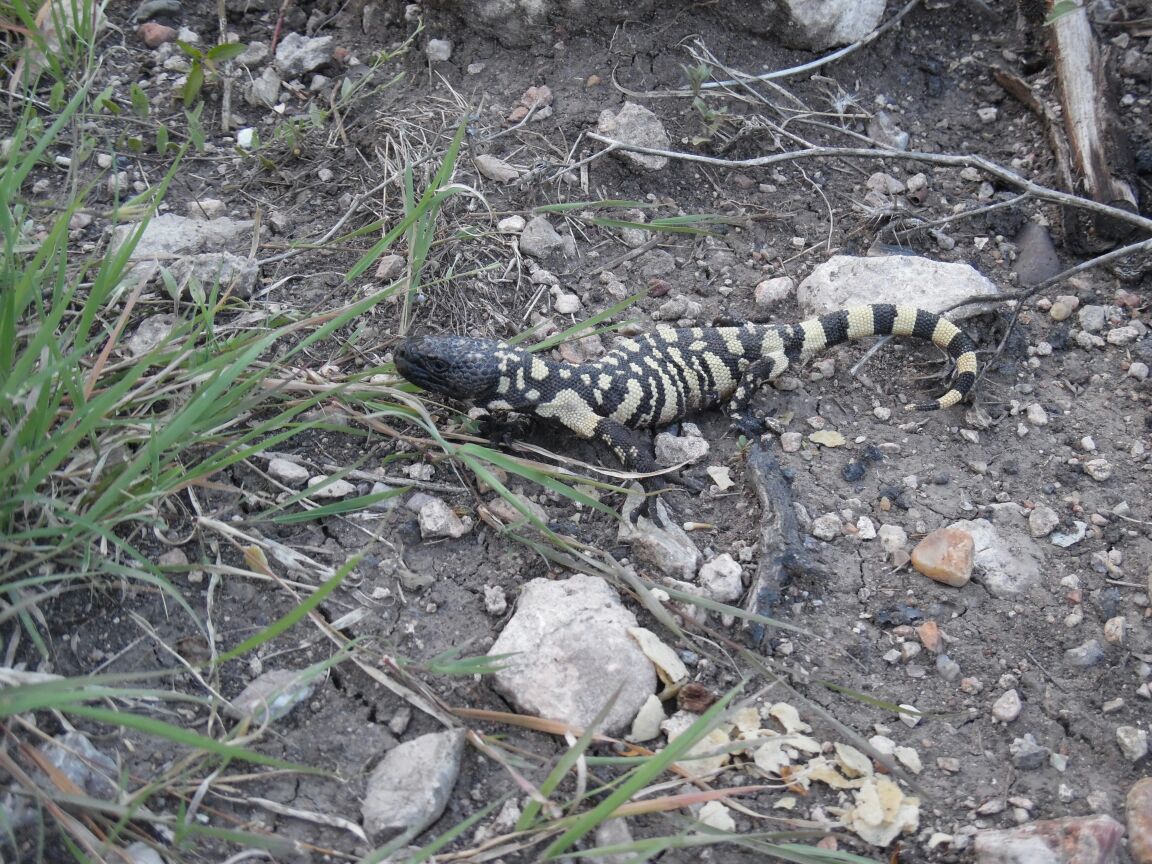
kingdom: Animalia
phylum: Chordata
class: Squamata
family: Helodermatidae
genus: Heloderma
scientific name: Heloderma horridum
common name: Mexican beaded lizard
